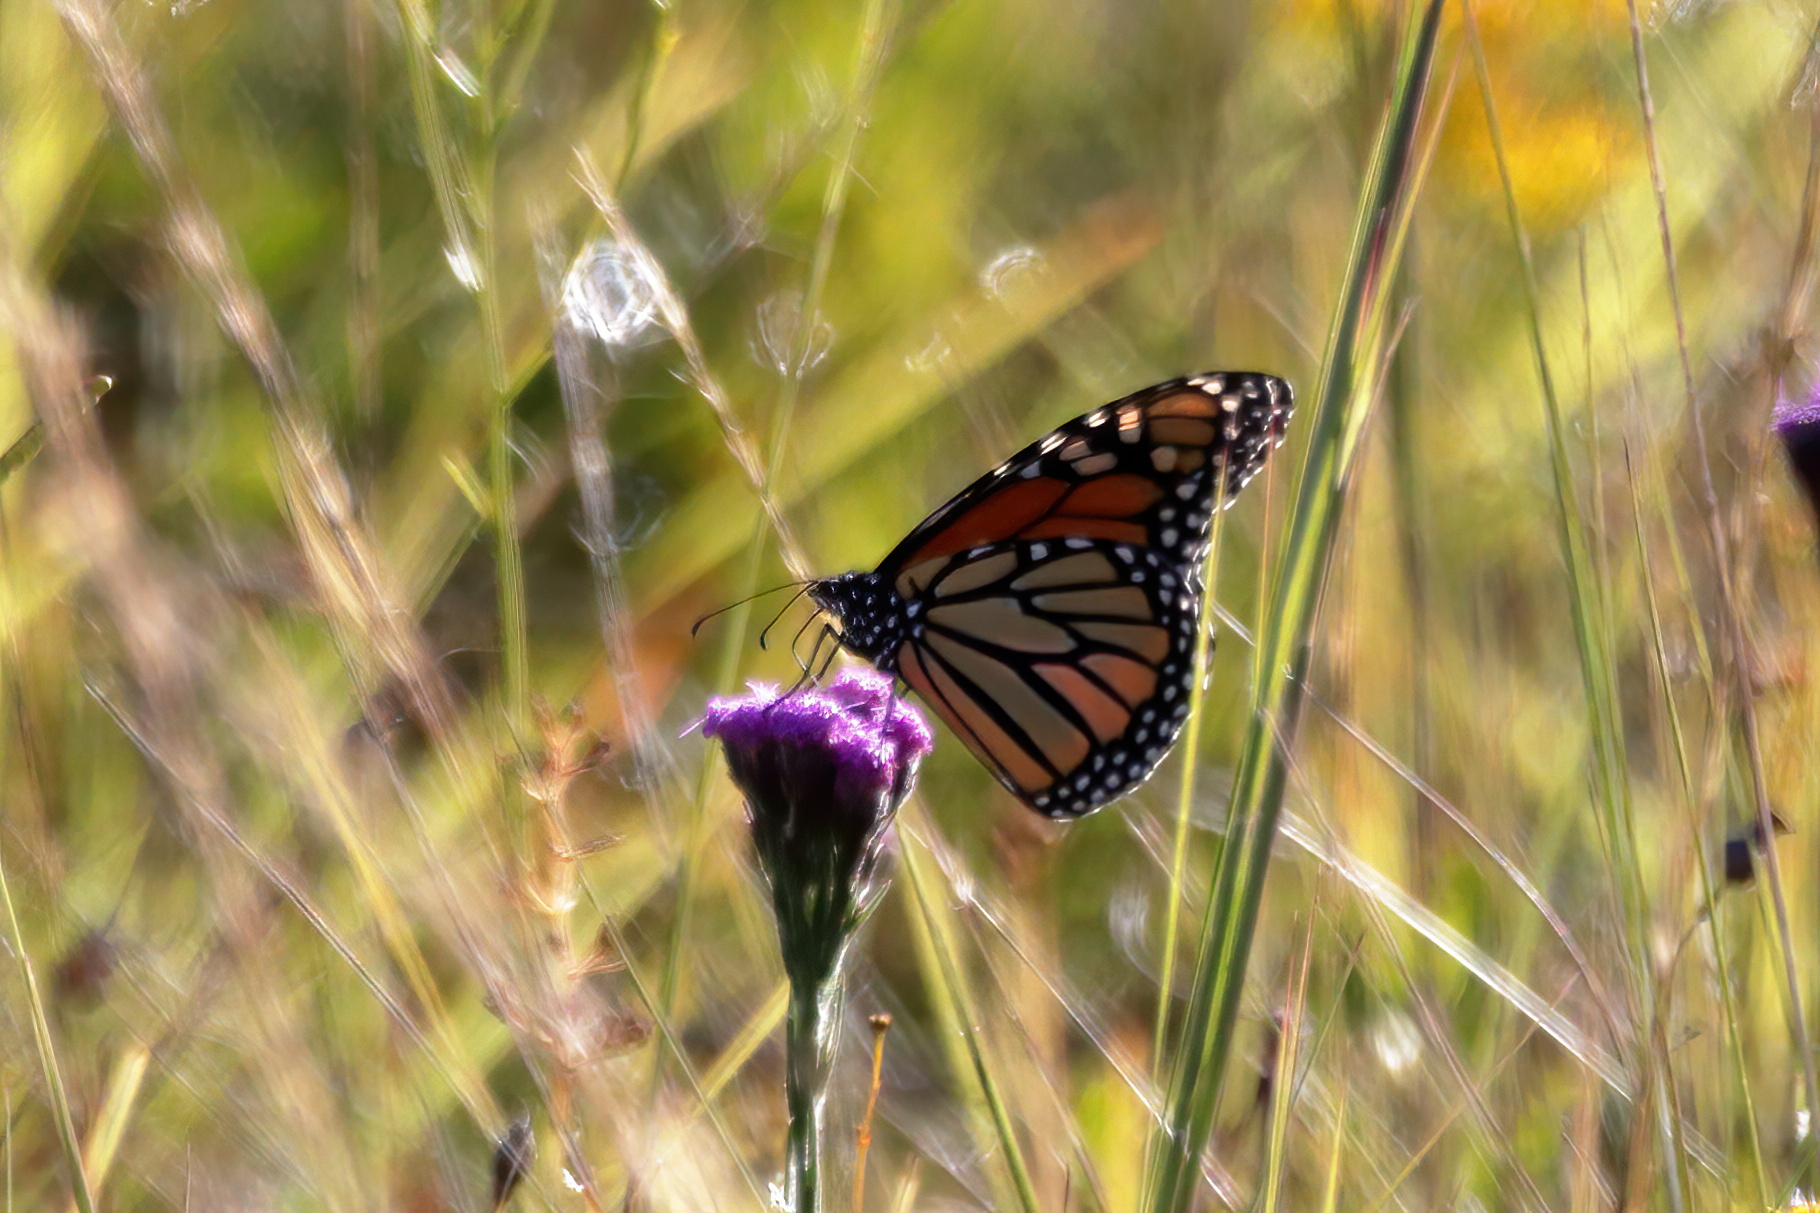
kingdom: Animalia
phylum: Arthropoda
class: Insecta
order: Lepidoptera
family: Nymphalidae
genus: Danaus
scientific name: Danaus plexippus
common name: Monarch
